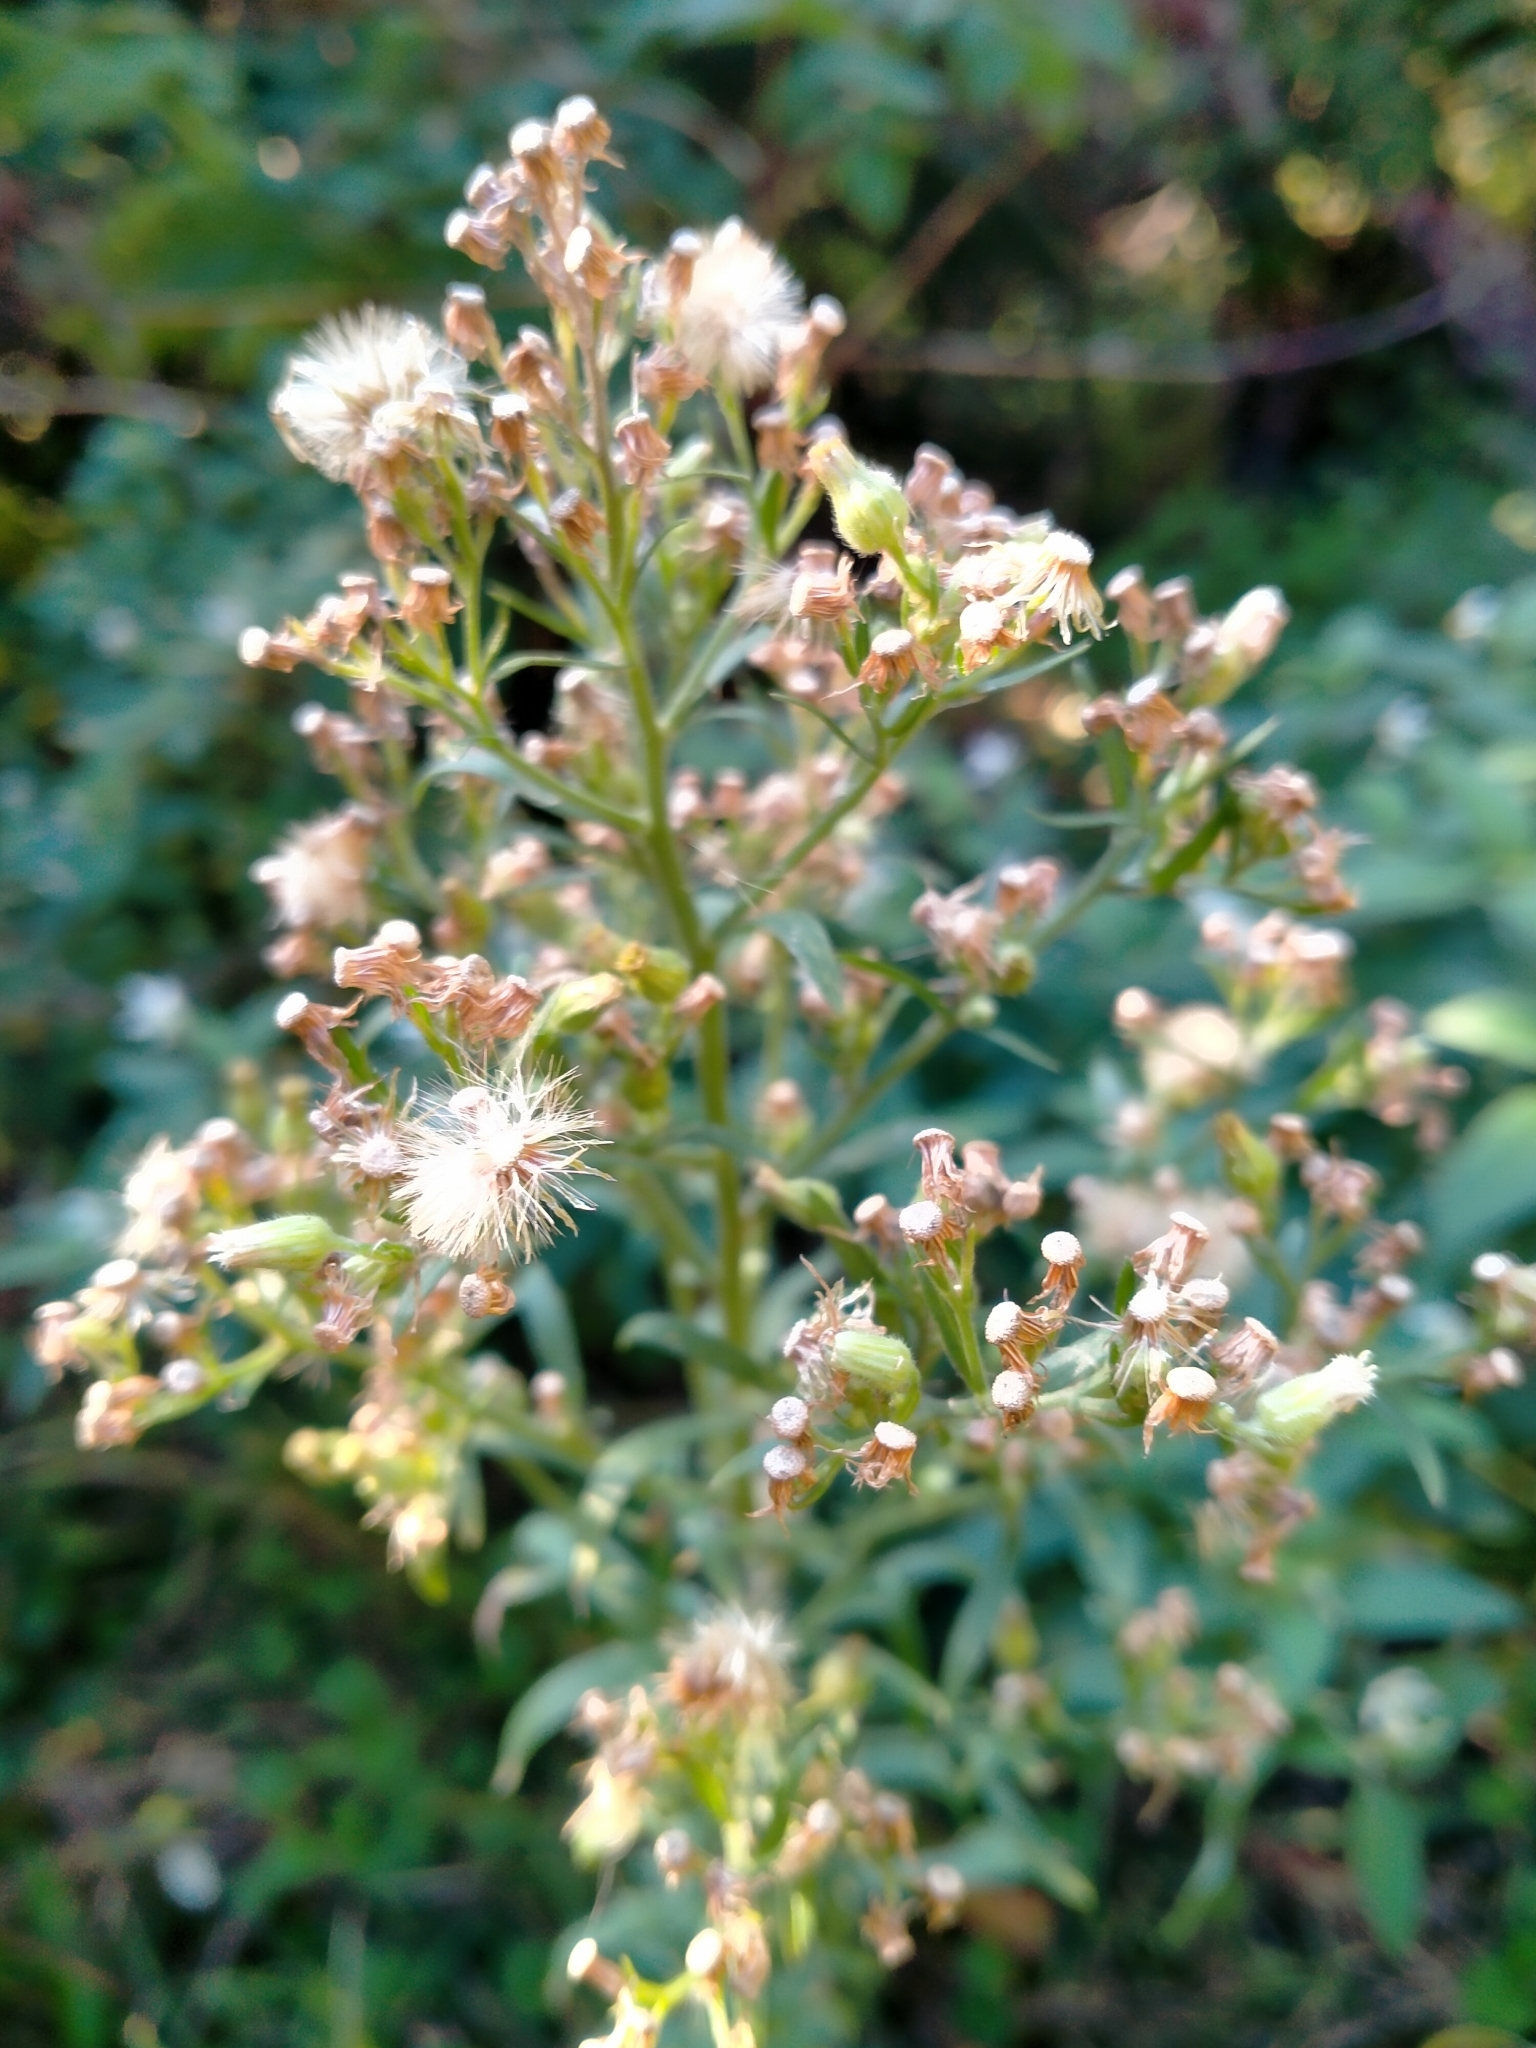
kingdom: Plantae
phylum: Tracheophyta
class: Magnoliopsida
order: Asterales
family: Asteraceae
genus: Erigeron
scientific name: Erigeron sumatrensis
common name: Daisy
